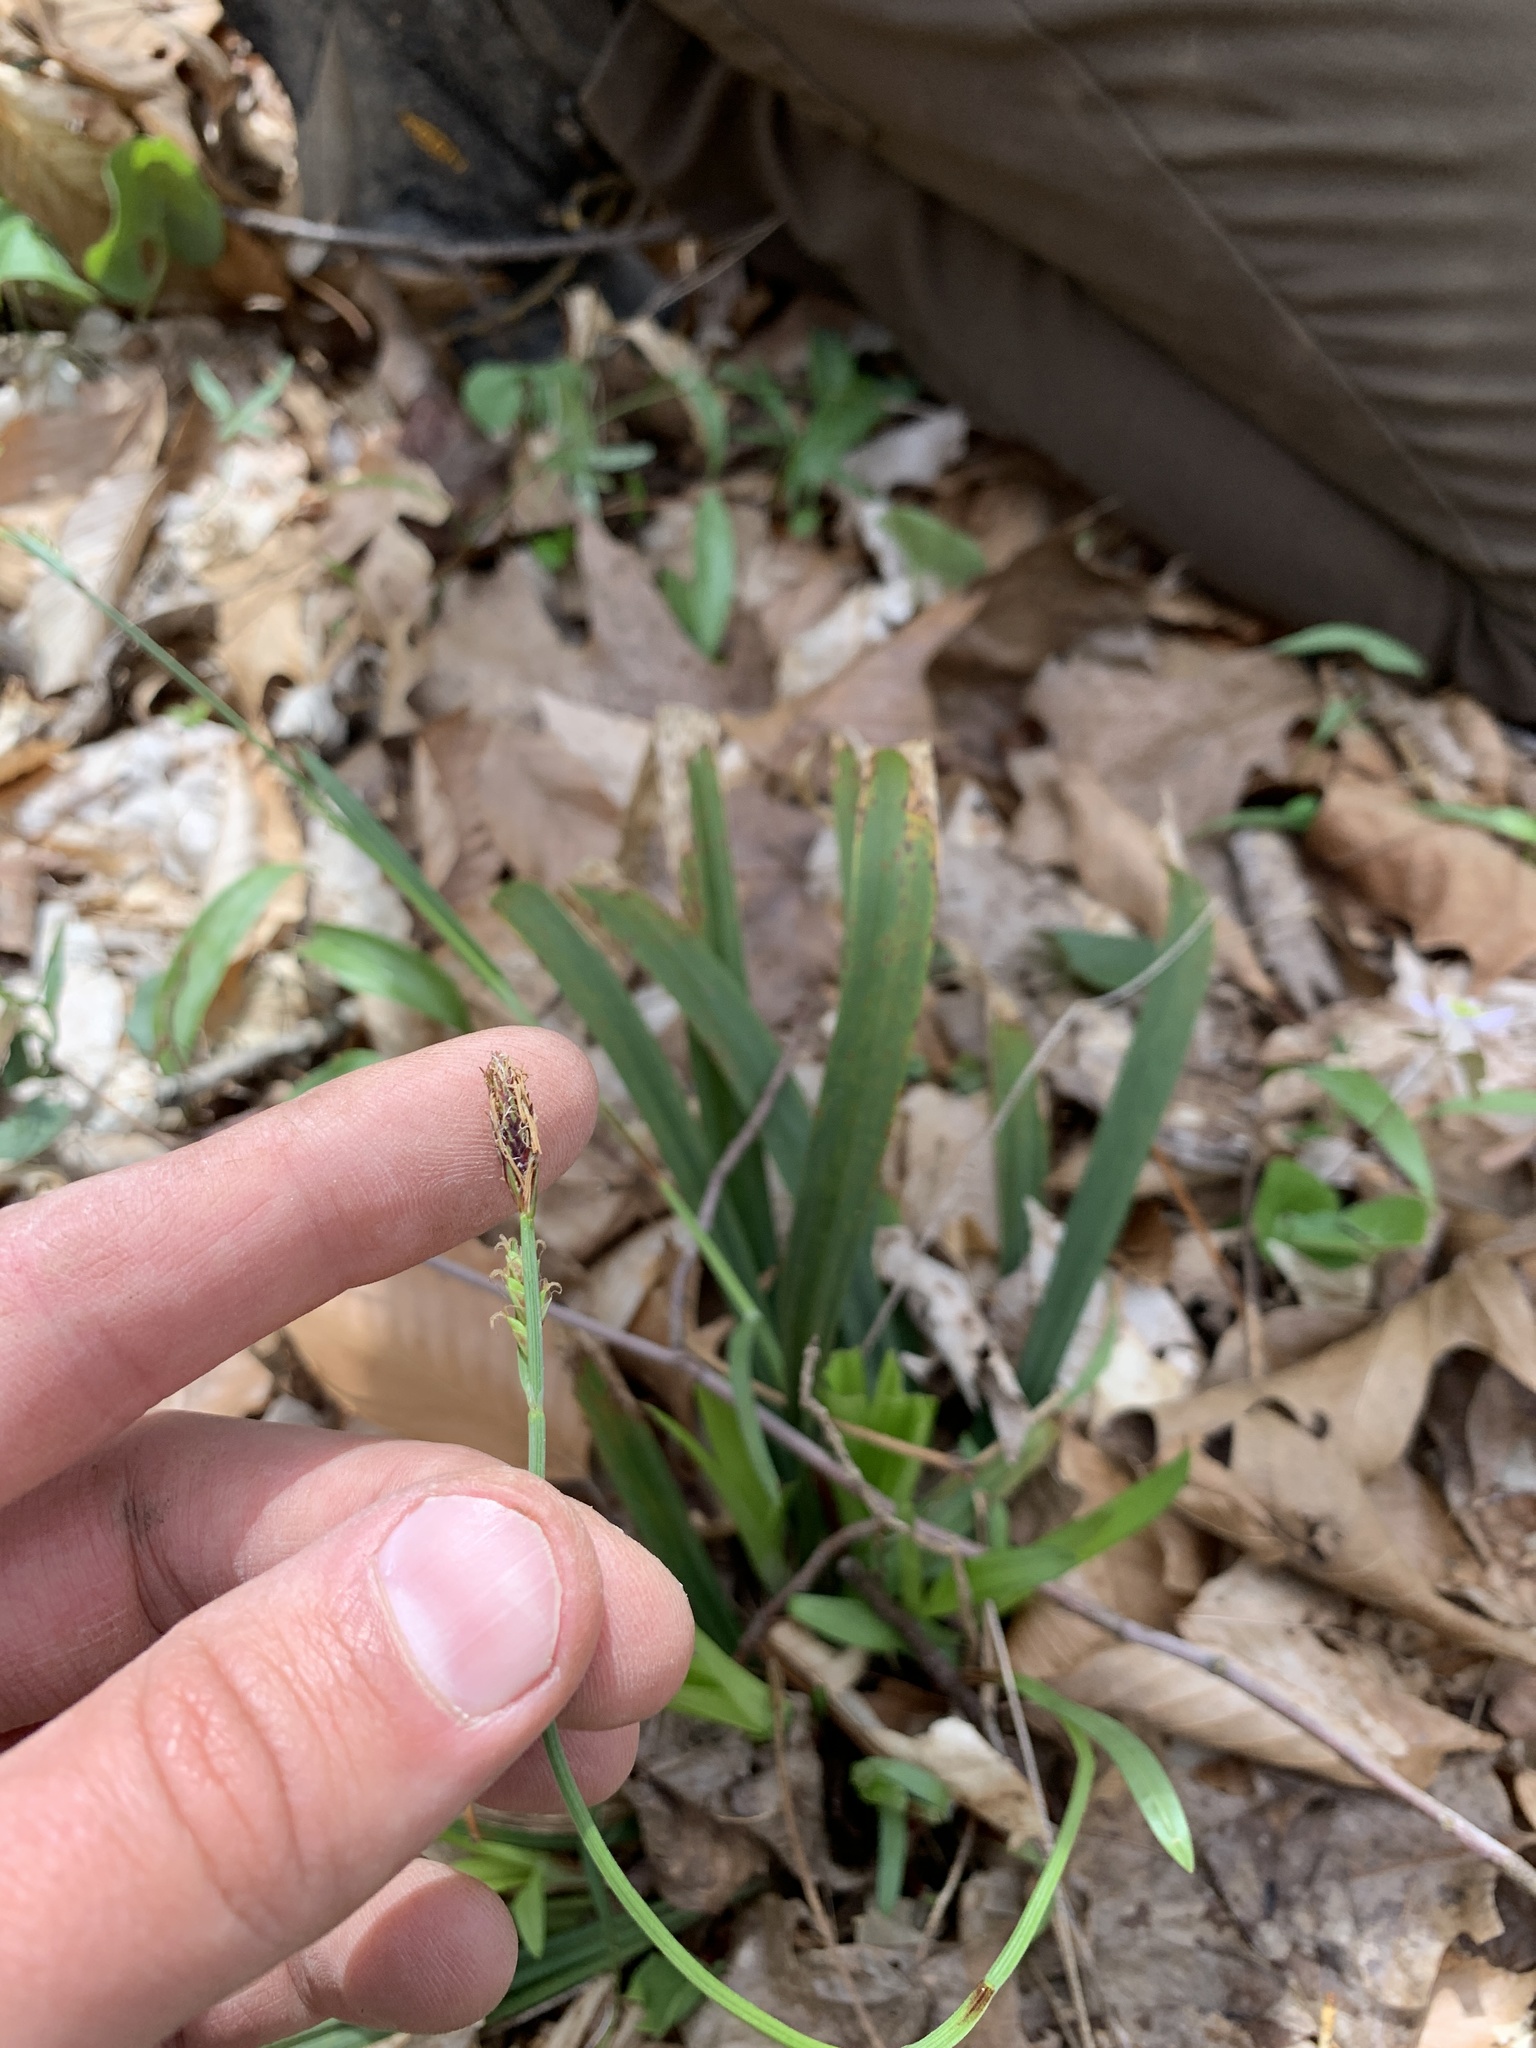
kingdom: Plantae
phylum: Tracheophyta
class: Liliopsida
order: Poales
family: Cyperaceae
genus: Carex
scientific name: Carex careyana
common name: Carey's sedge
